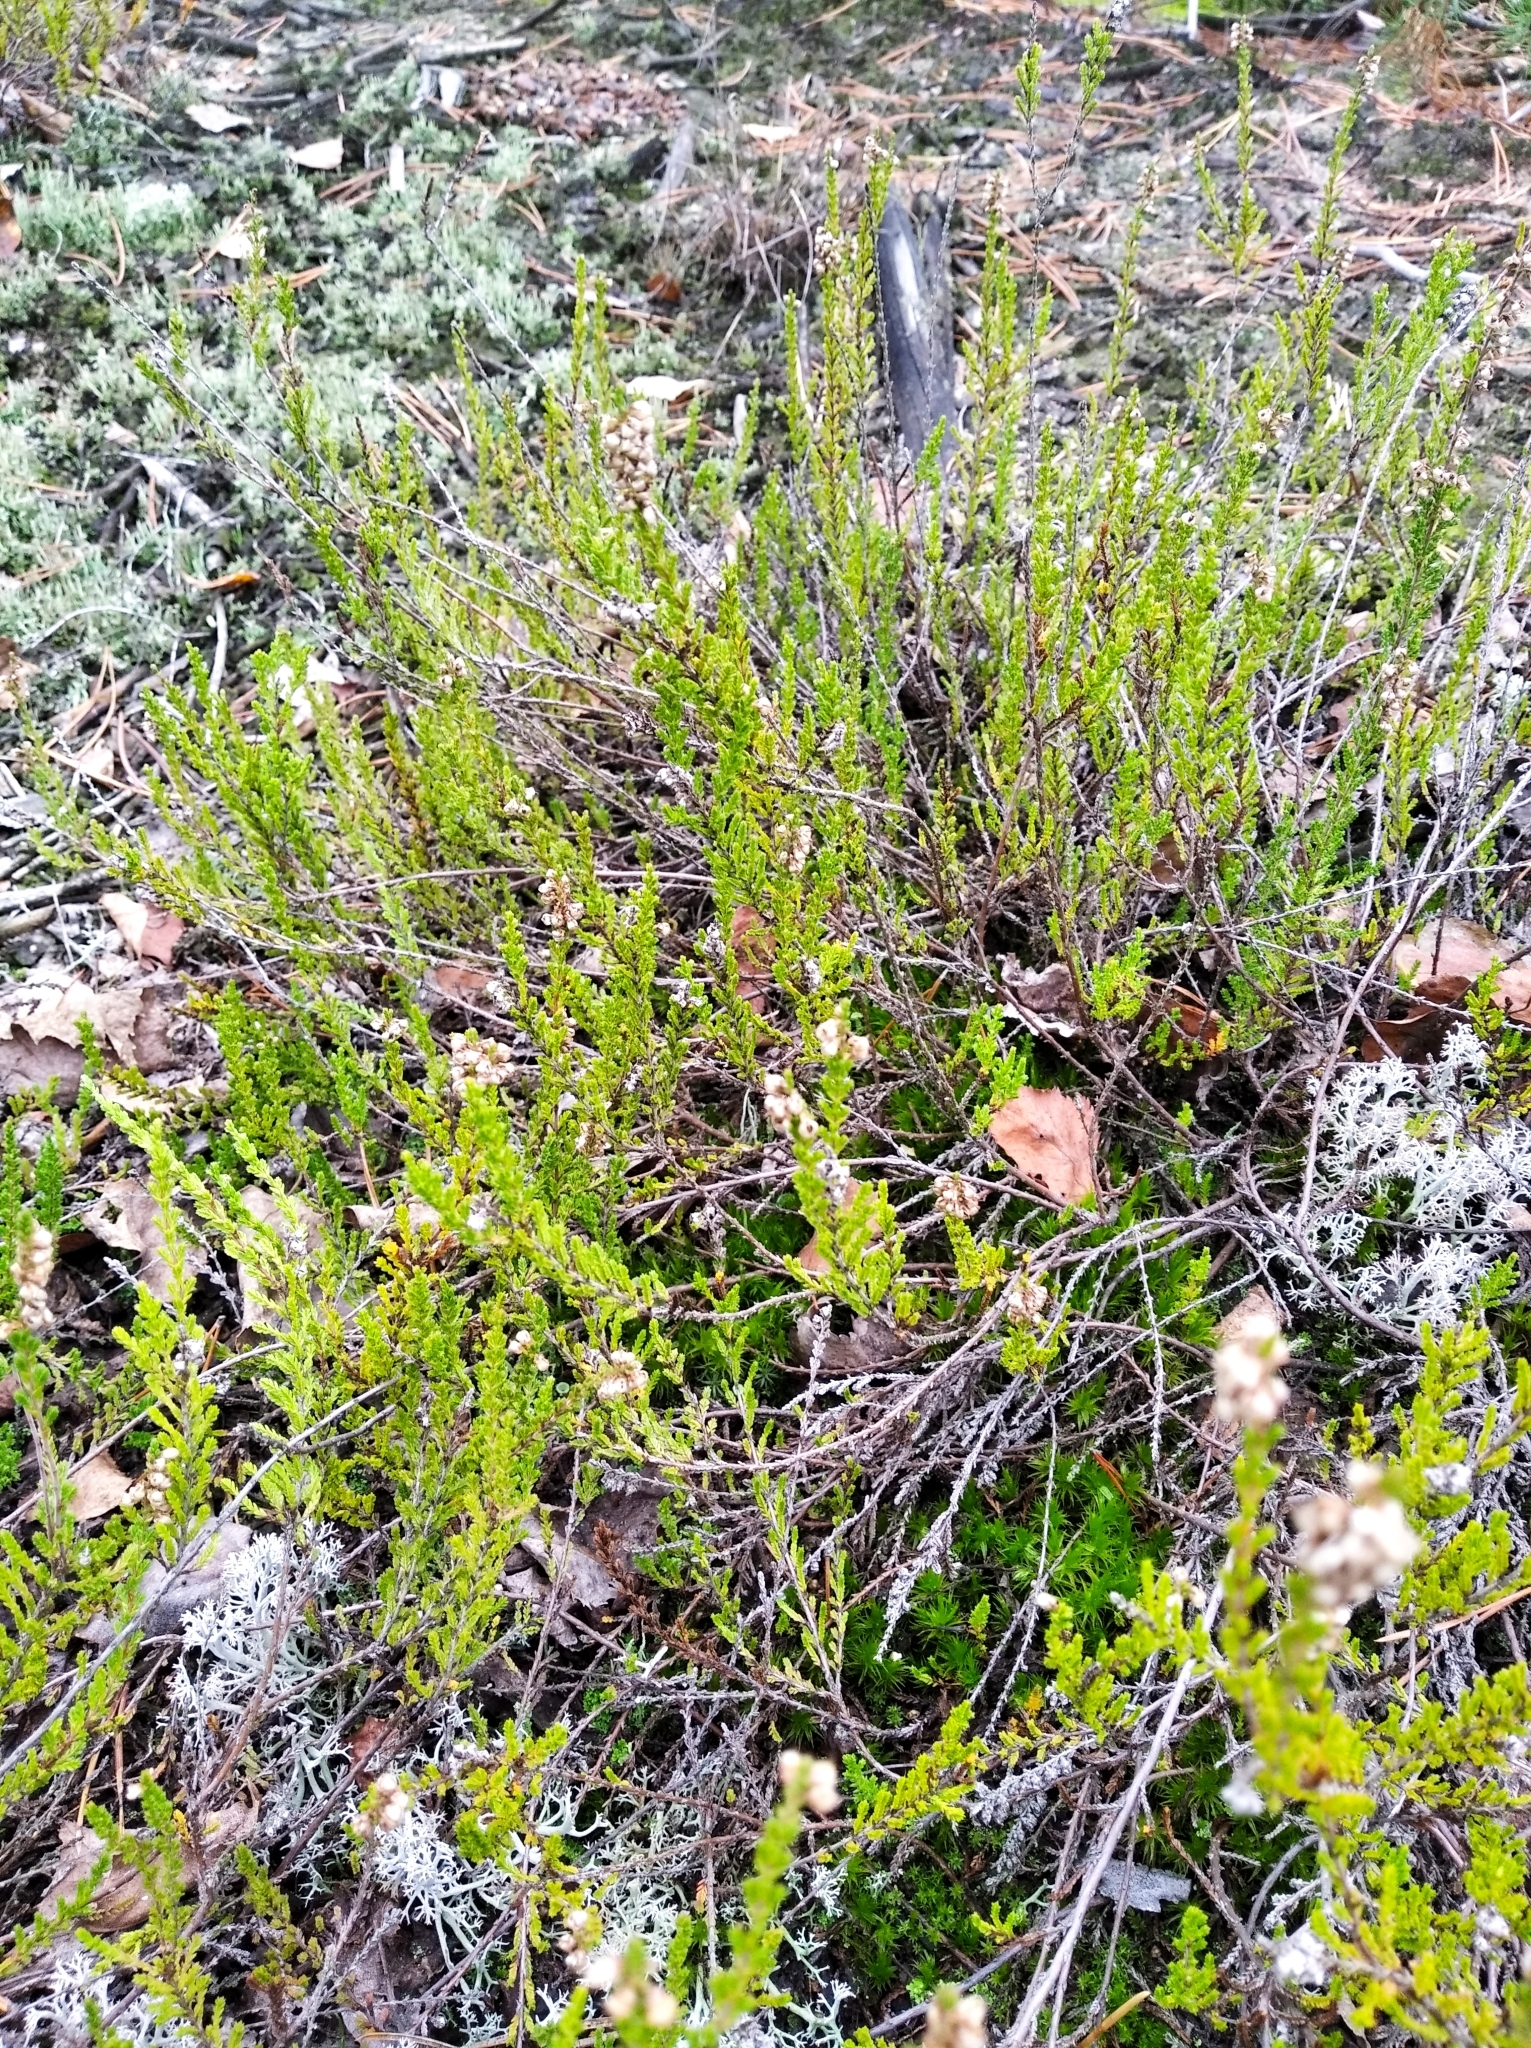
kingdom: Plantae
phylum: Tracheophyta
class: Magnoliopsida
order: Ericales
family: Ericaceae
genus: Calluna
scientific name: Calluna vulgaris
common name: Heather
